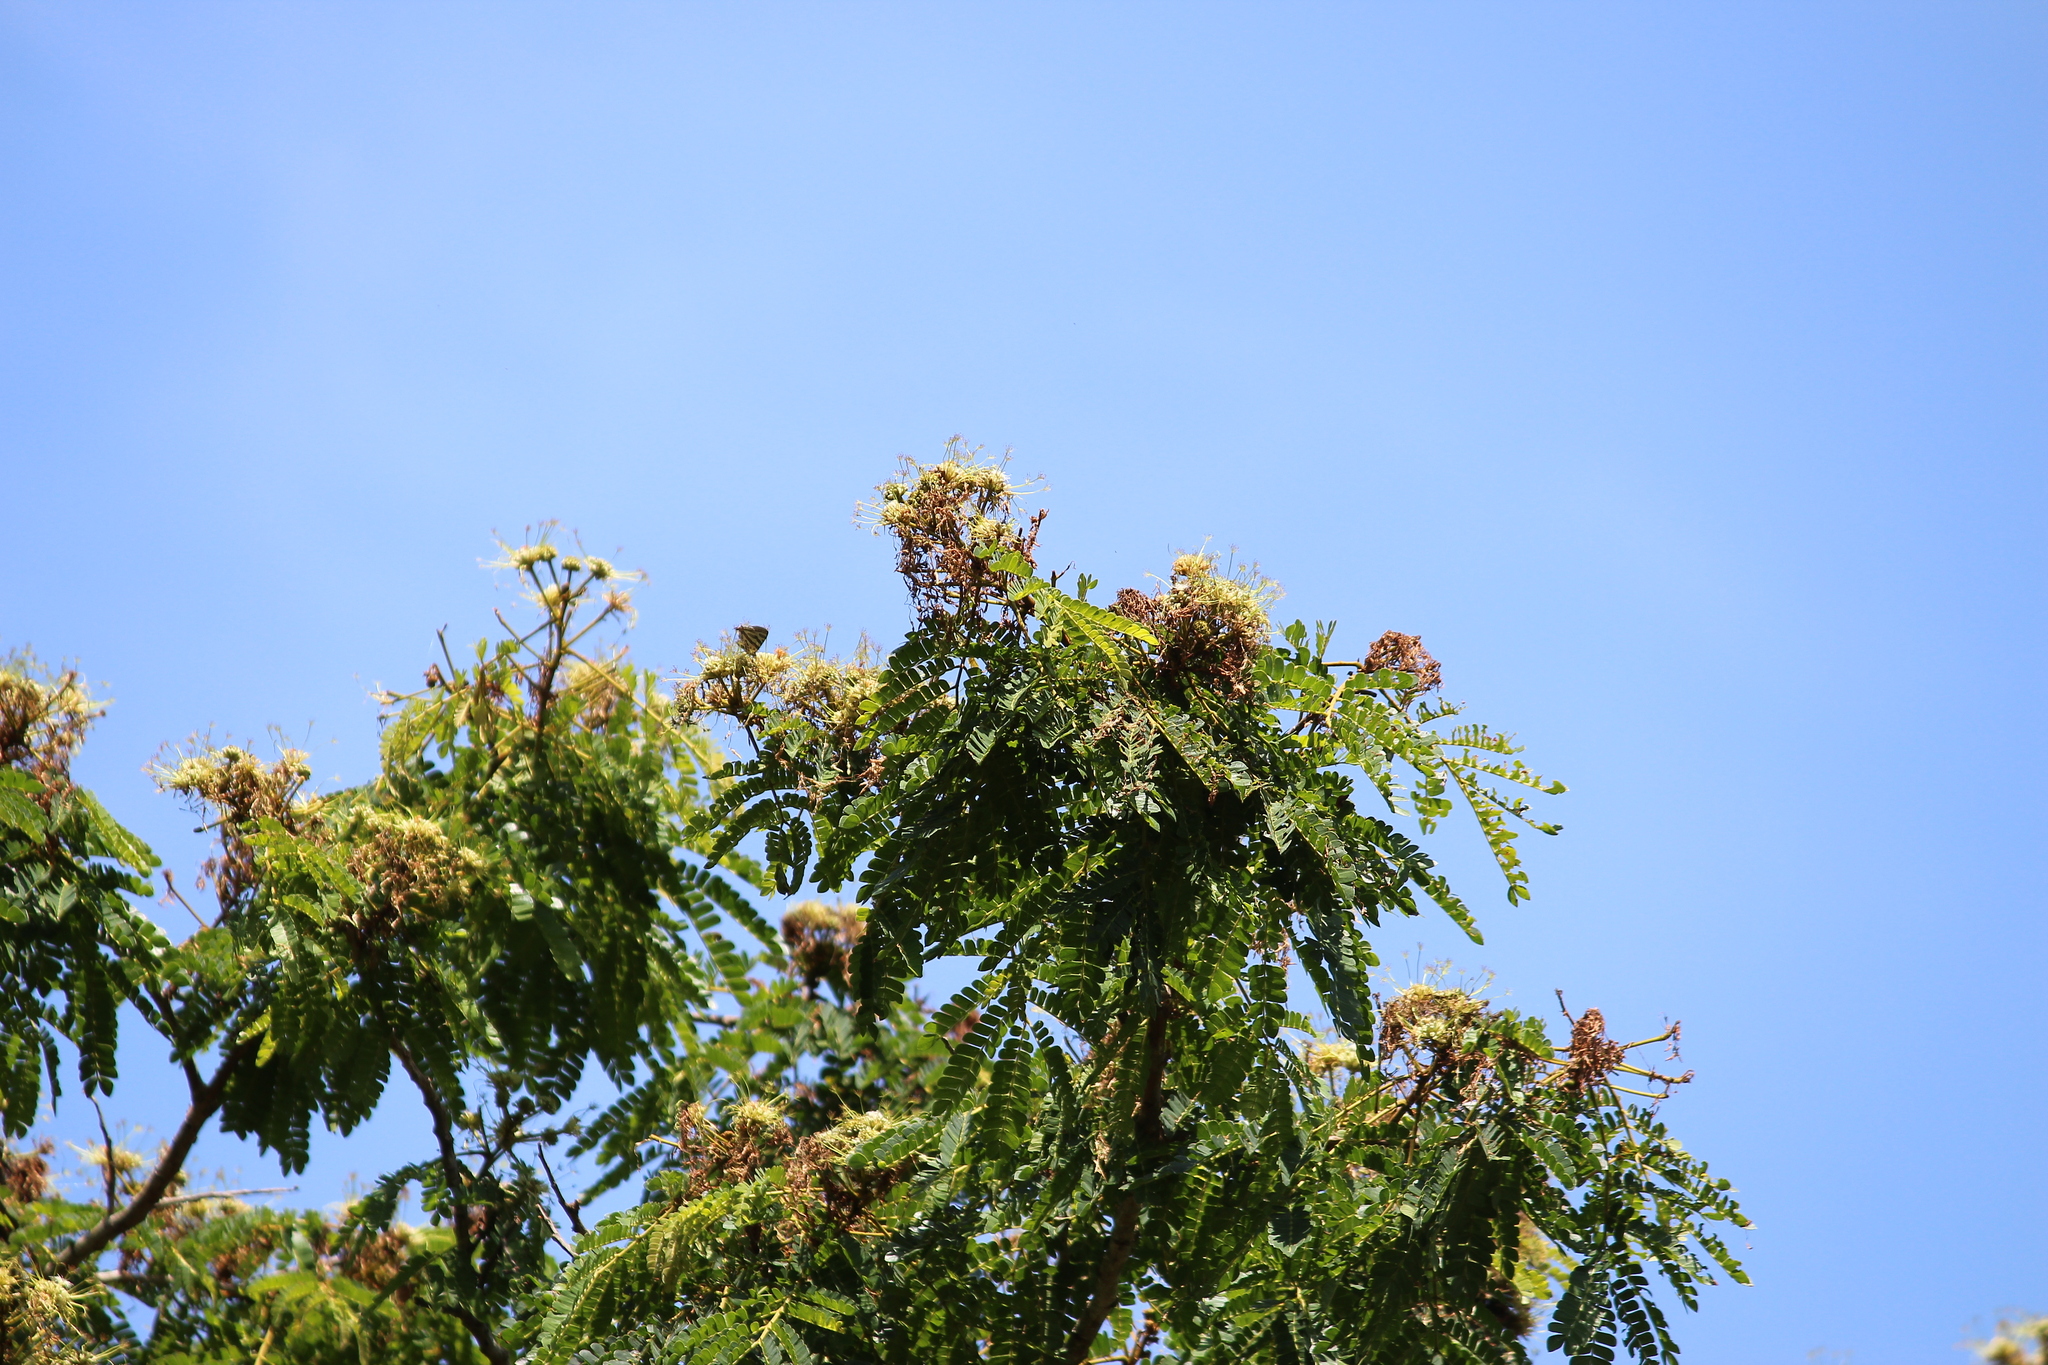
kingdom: Plantae
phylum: Tracheophyta
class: Magnoliopsida
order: Fabales
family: Fabaceae
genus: Albizia
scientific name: Albizia adianthifolia
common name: West african albizia
